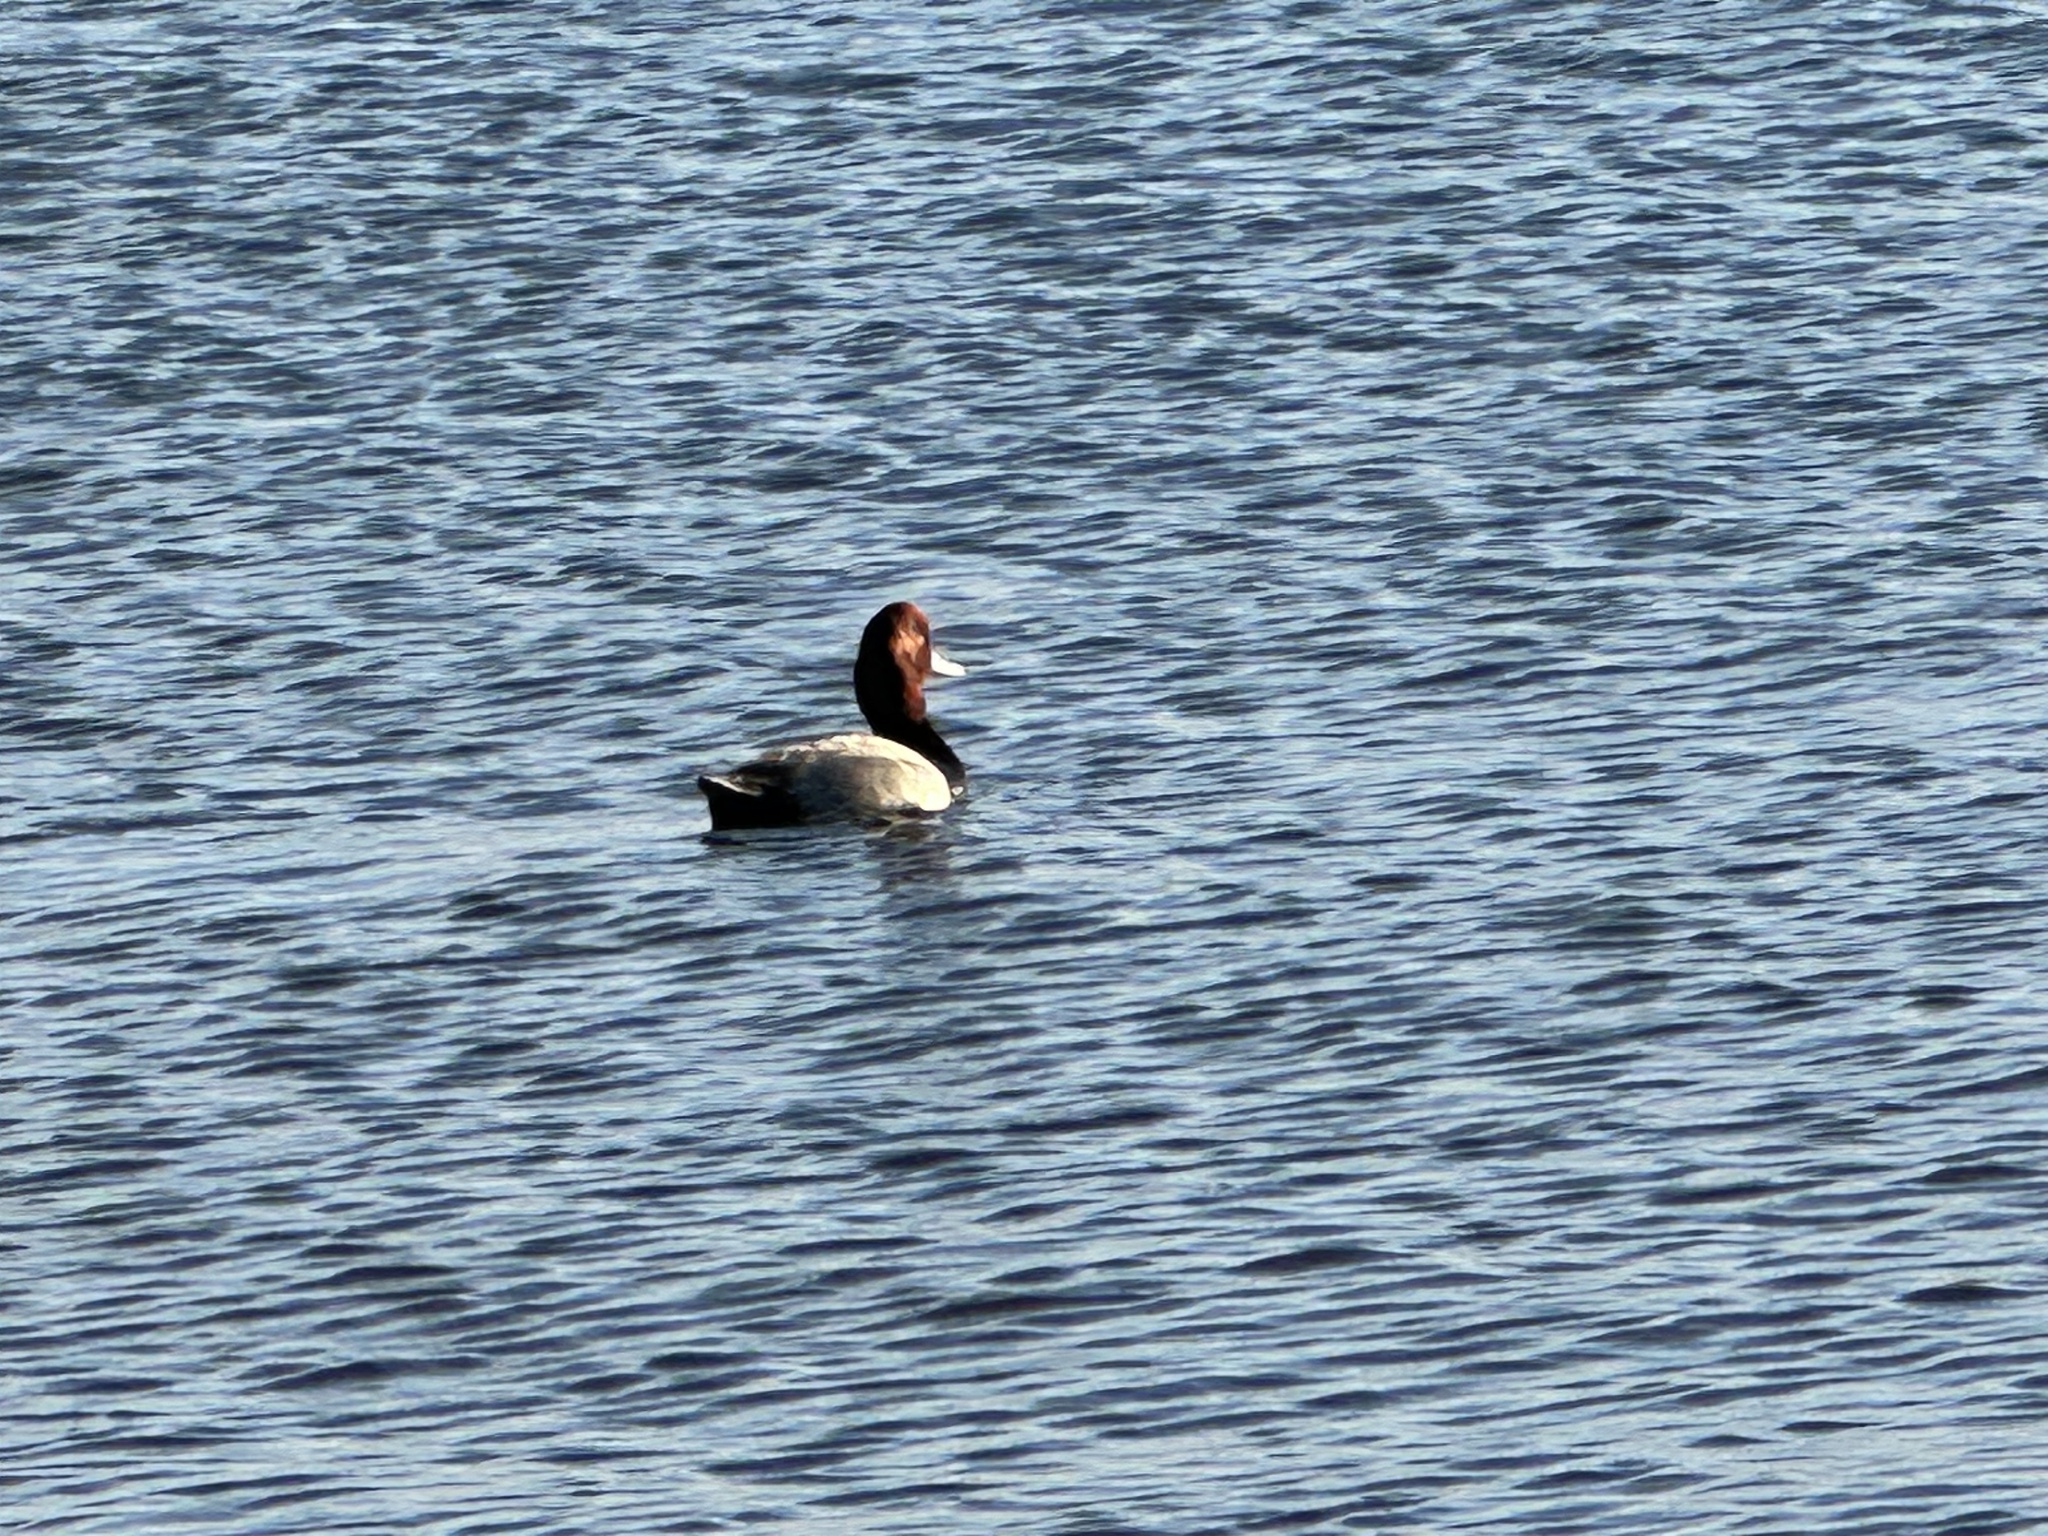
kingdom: Animalia
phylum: Chordata
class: Aves
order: Anseriformes
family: Anatidae
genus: Aythya
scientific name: Aythya americana
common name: Redhead
